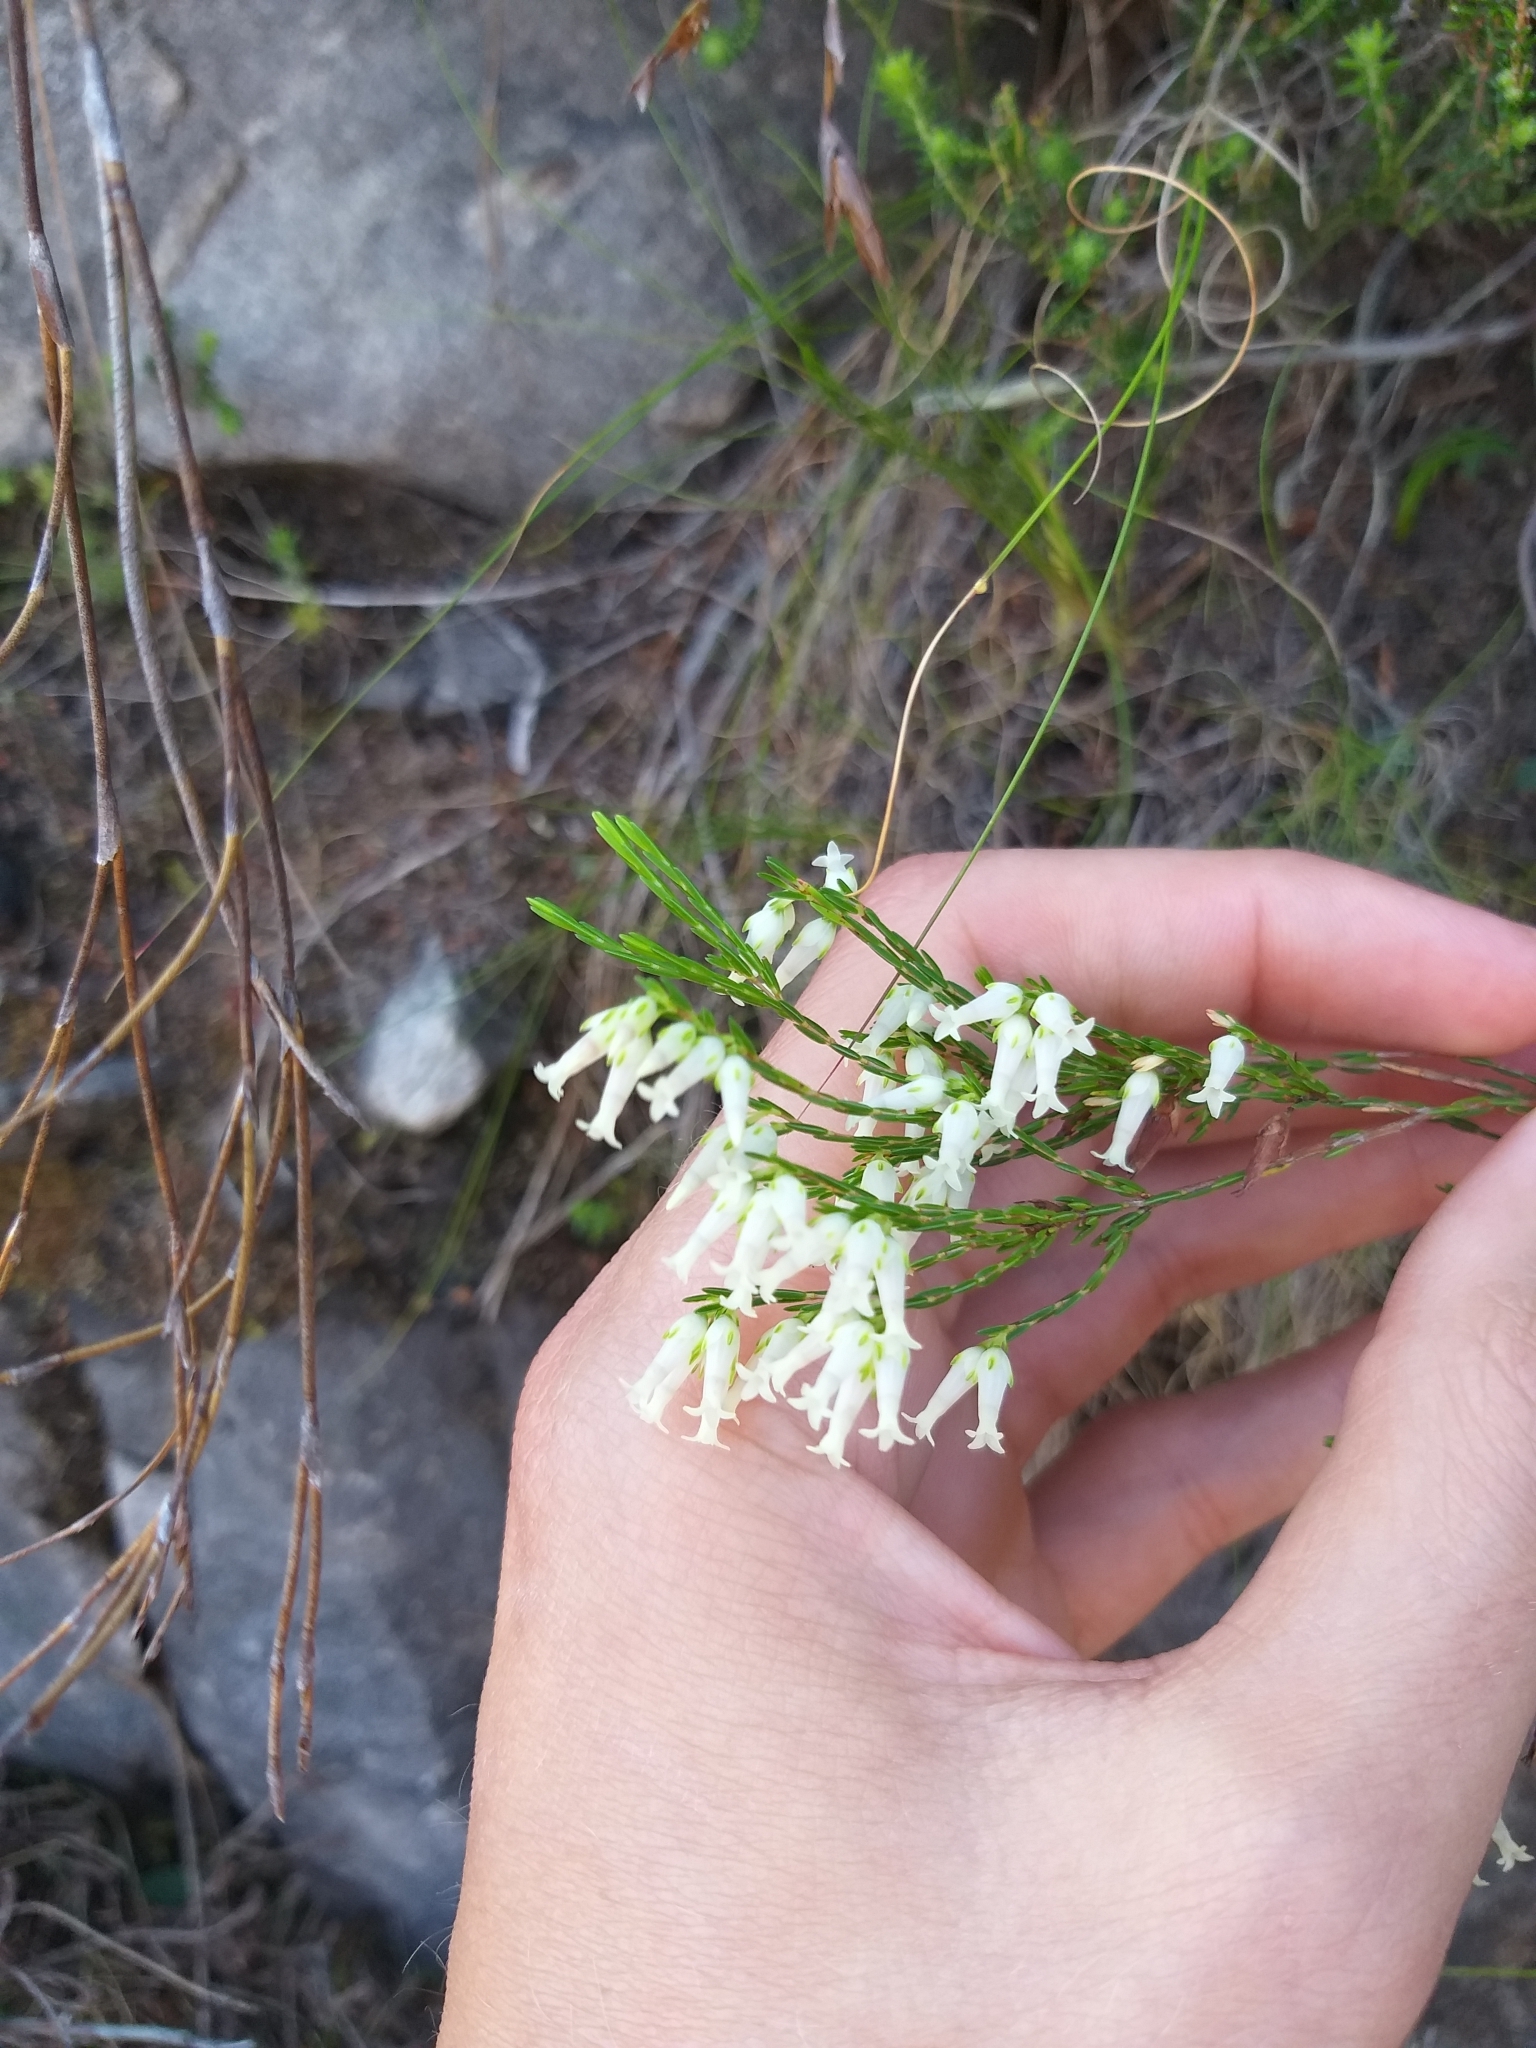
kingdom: Plantae
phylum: Tracheophyta
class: Magnoliopsida
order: Ericales
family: Ericaceae
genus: Erica
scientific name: Erica lutea
